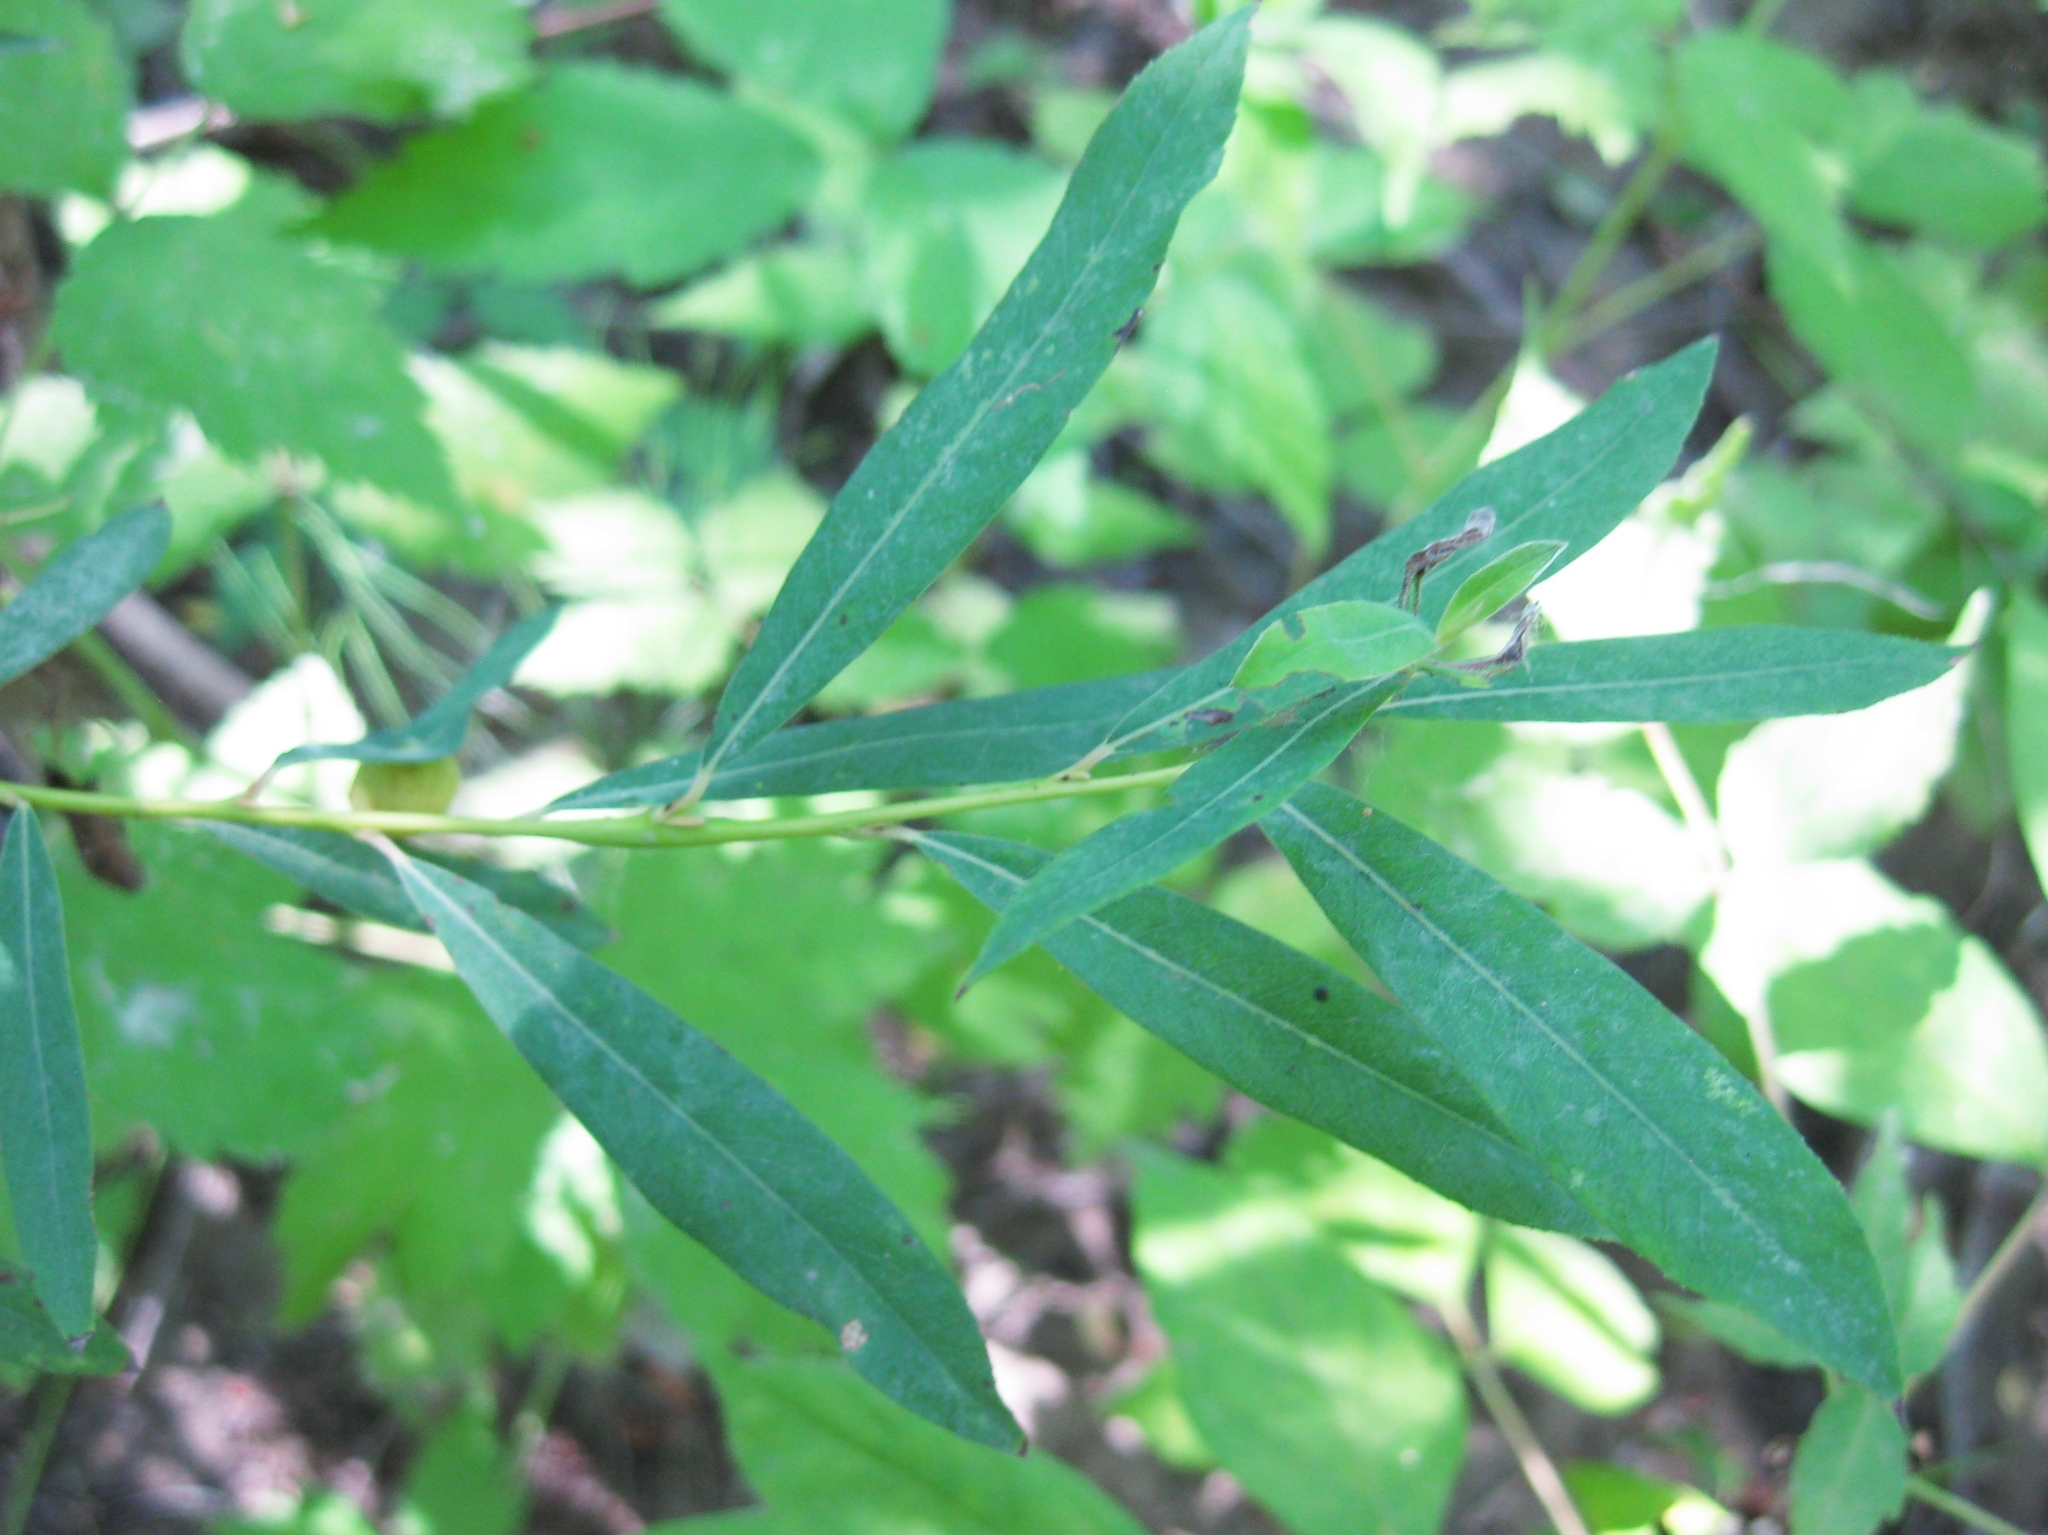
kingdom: Animalia
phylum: Arthropoda
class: Insecta
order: Hymenoptera
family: Tenthredinidae
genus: Euura
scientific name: Euura
